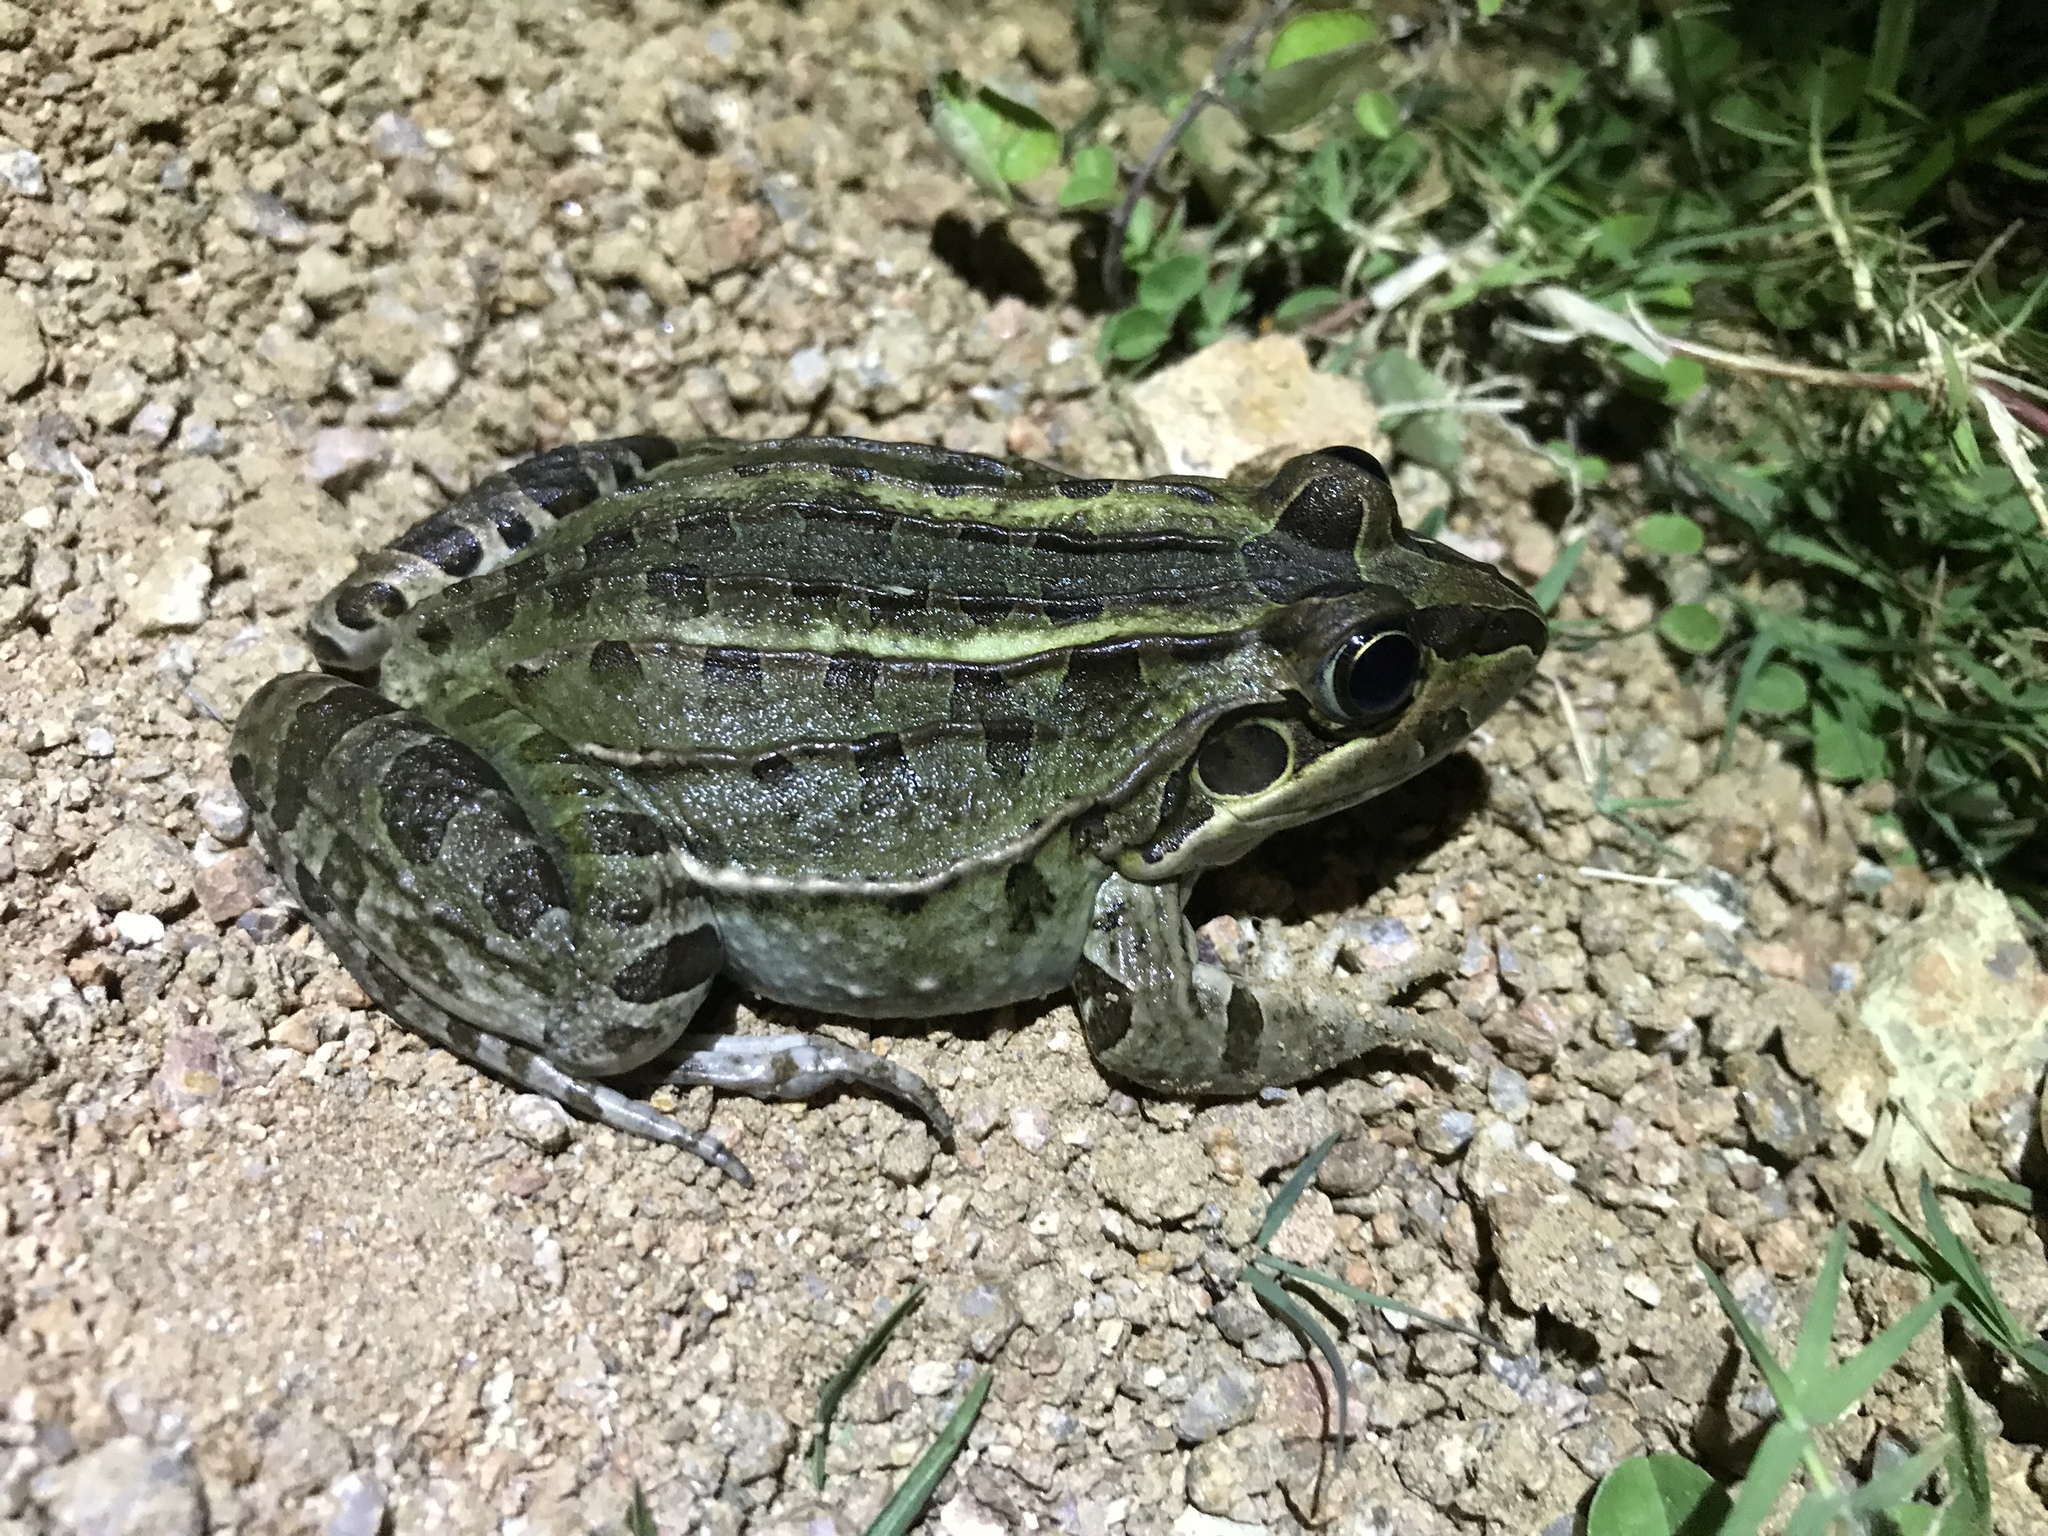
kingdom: Animalia
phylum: Chordata
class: Amphibia
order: Anura
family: Leptodactylidae
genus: Leptodactylus
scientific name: Leptodactylus luctator
